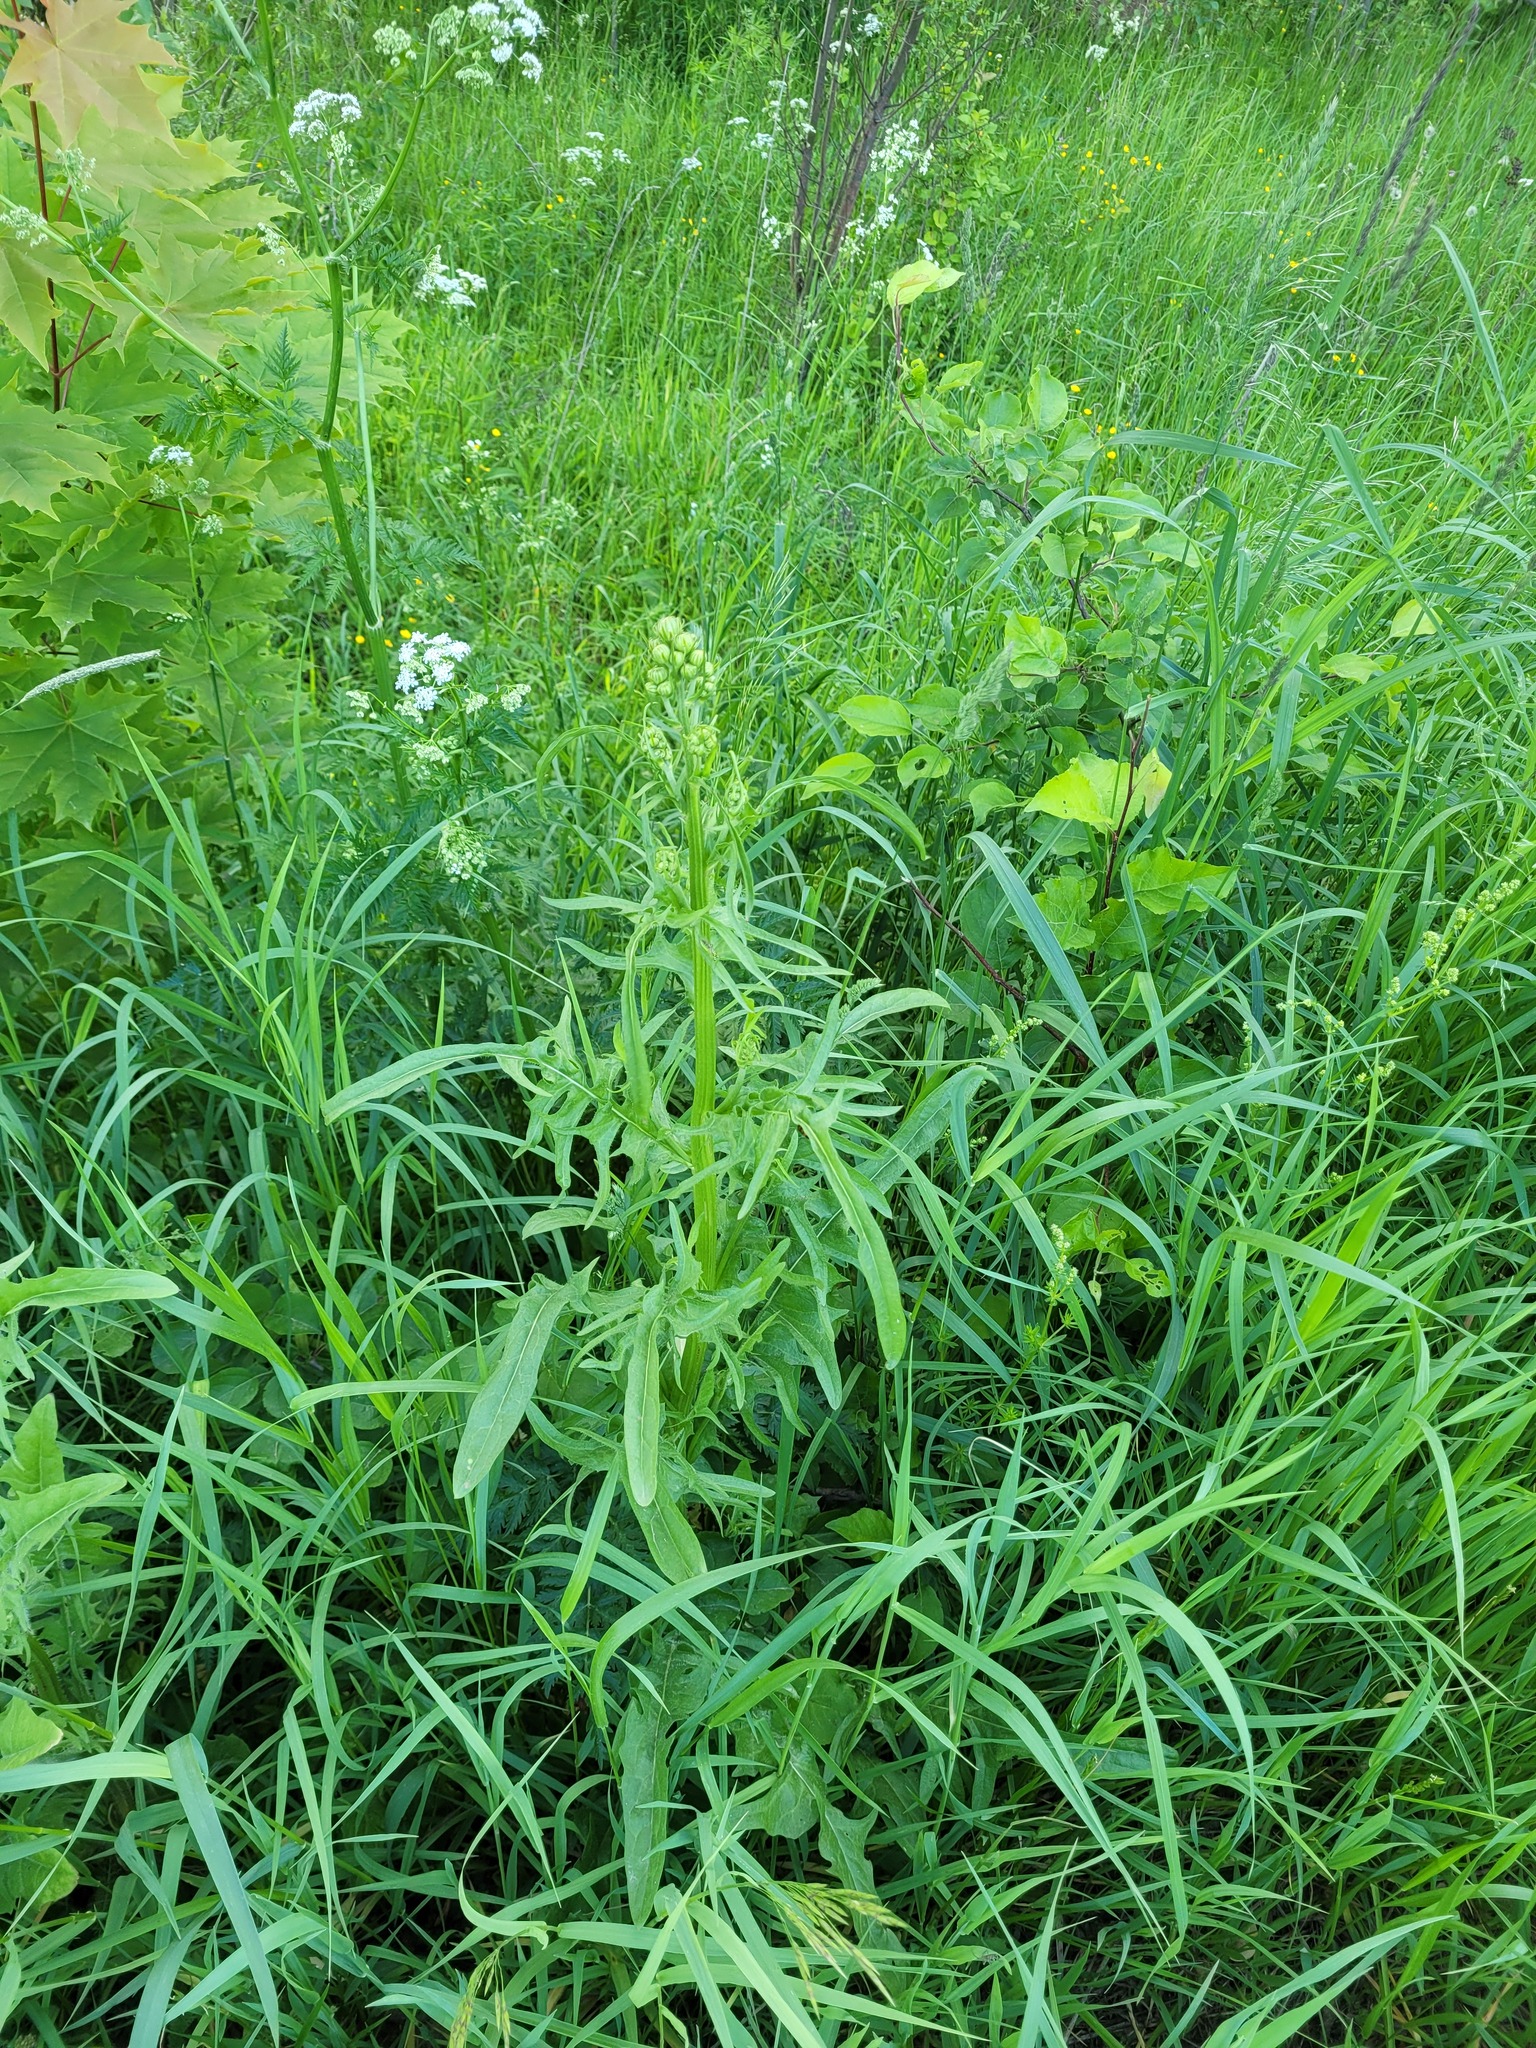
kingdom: Plantae
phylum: Tracheophyta
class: Magnoliopsida
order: Asterales
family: Asteraceae
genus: Crepis
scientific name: Crepis biennis
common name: Rough hawk's-beard
